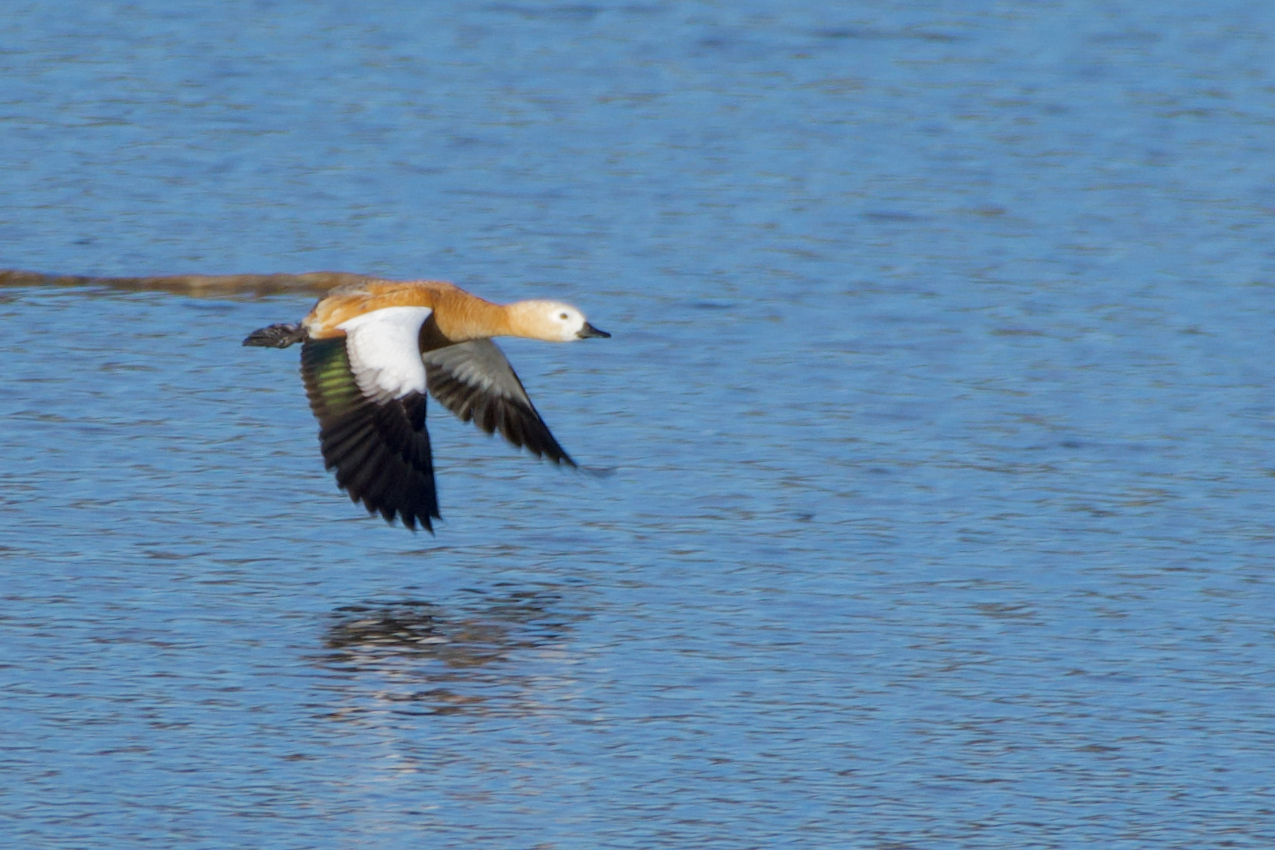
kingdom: Animalia
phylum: Chordata
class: Aves
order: Anseriformes
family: Anatidae
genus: Tadorna
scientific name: Tadorna ferruginea
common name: Ruddy shelduck
